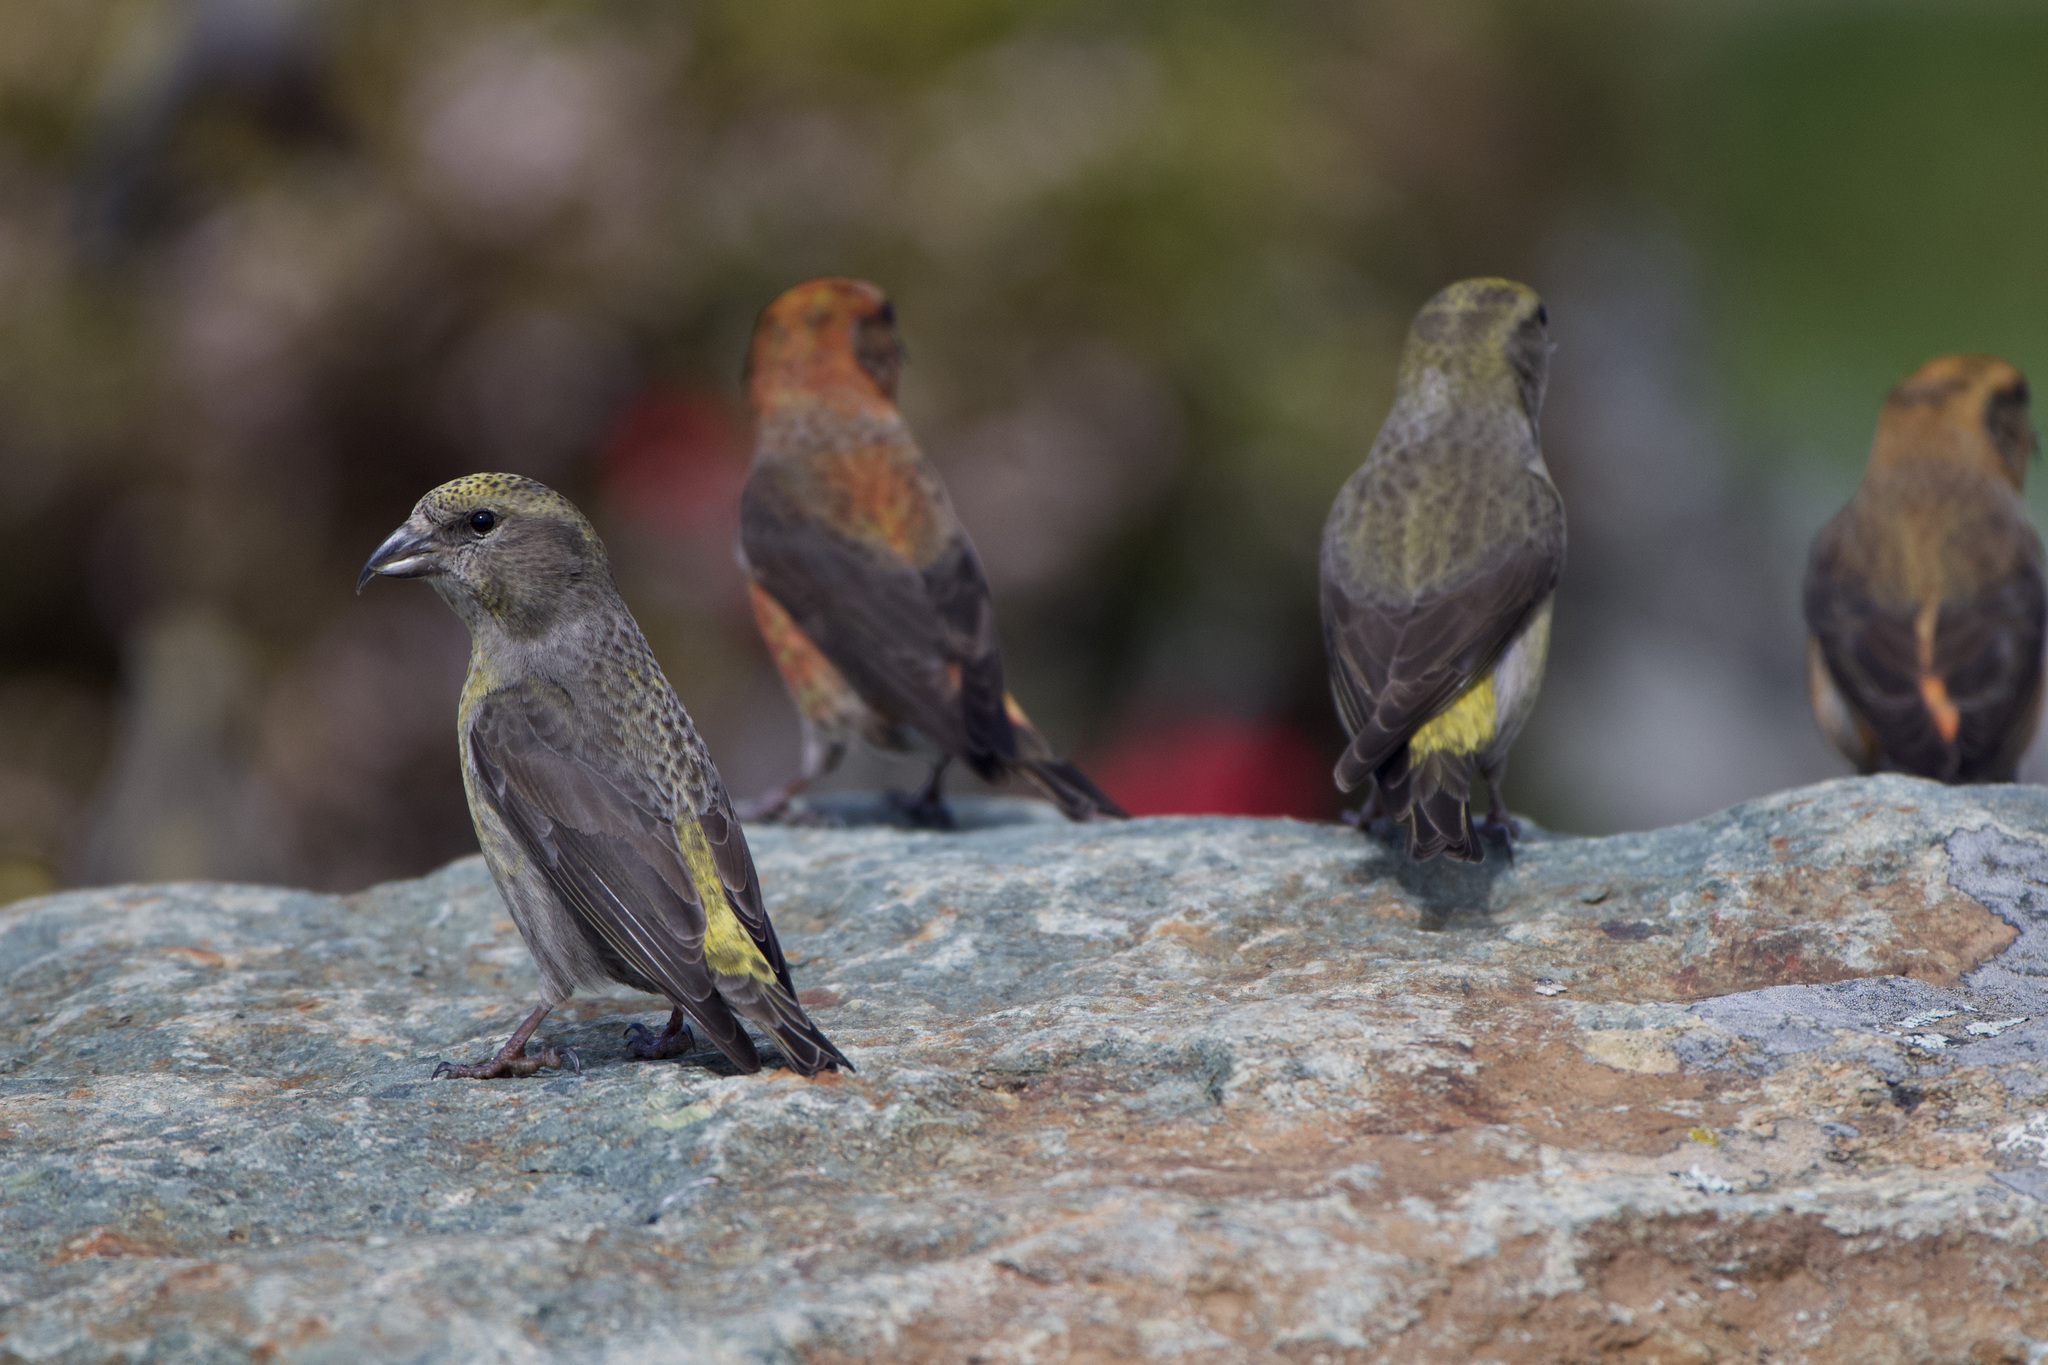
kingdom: Animalia
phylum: Chordata
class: Aves
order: Passeriformes
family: Fringillidae
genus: Loxia
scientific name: Loxia curvirostra
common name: Red crossbill
